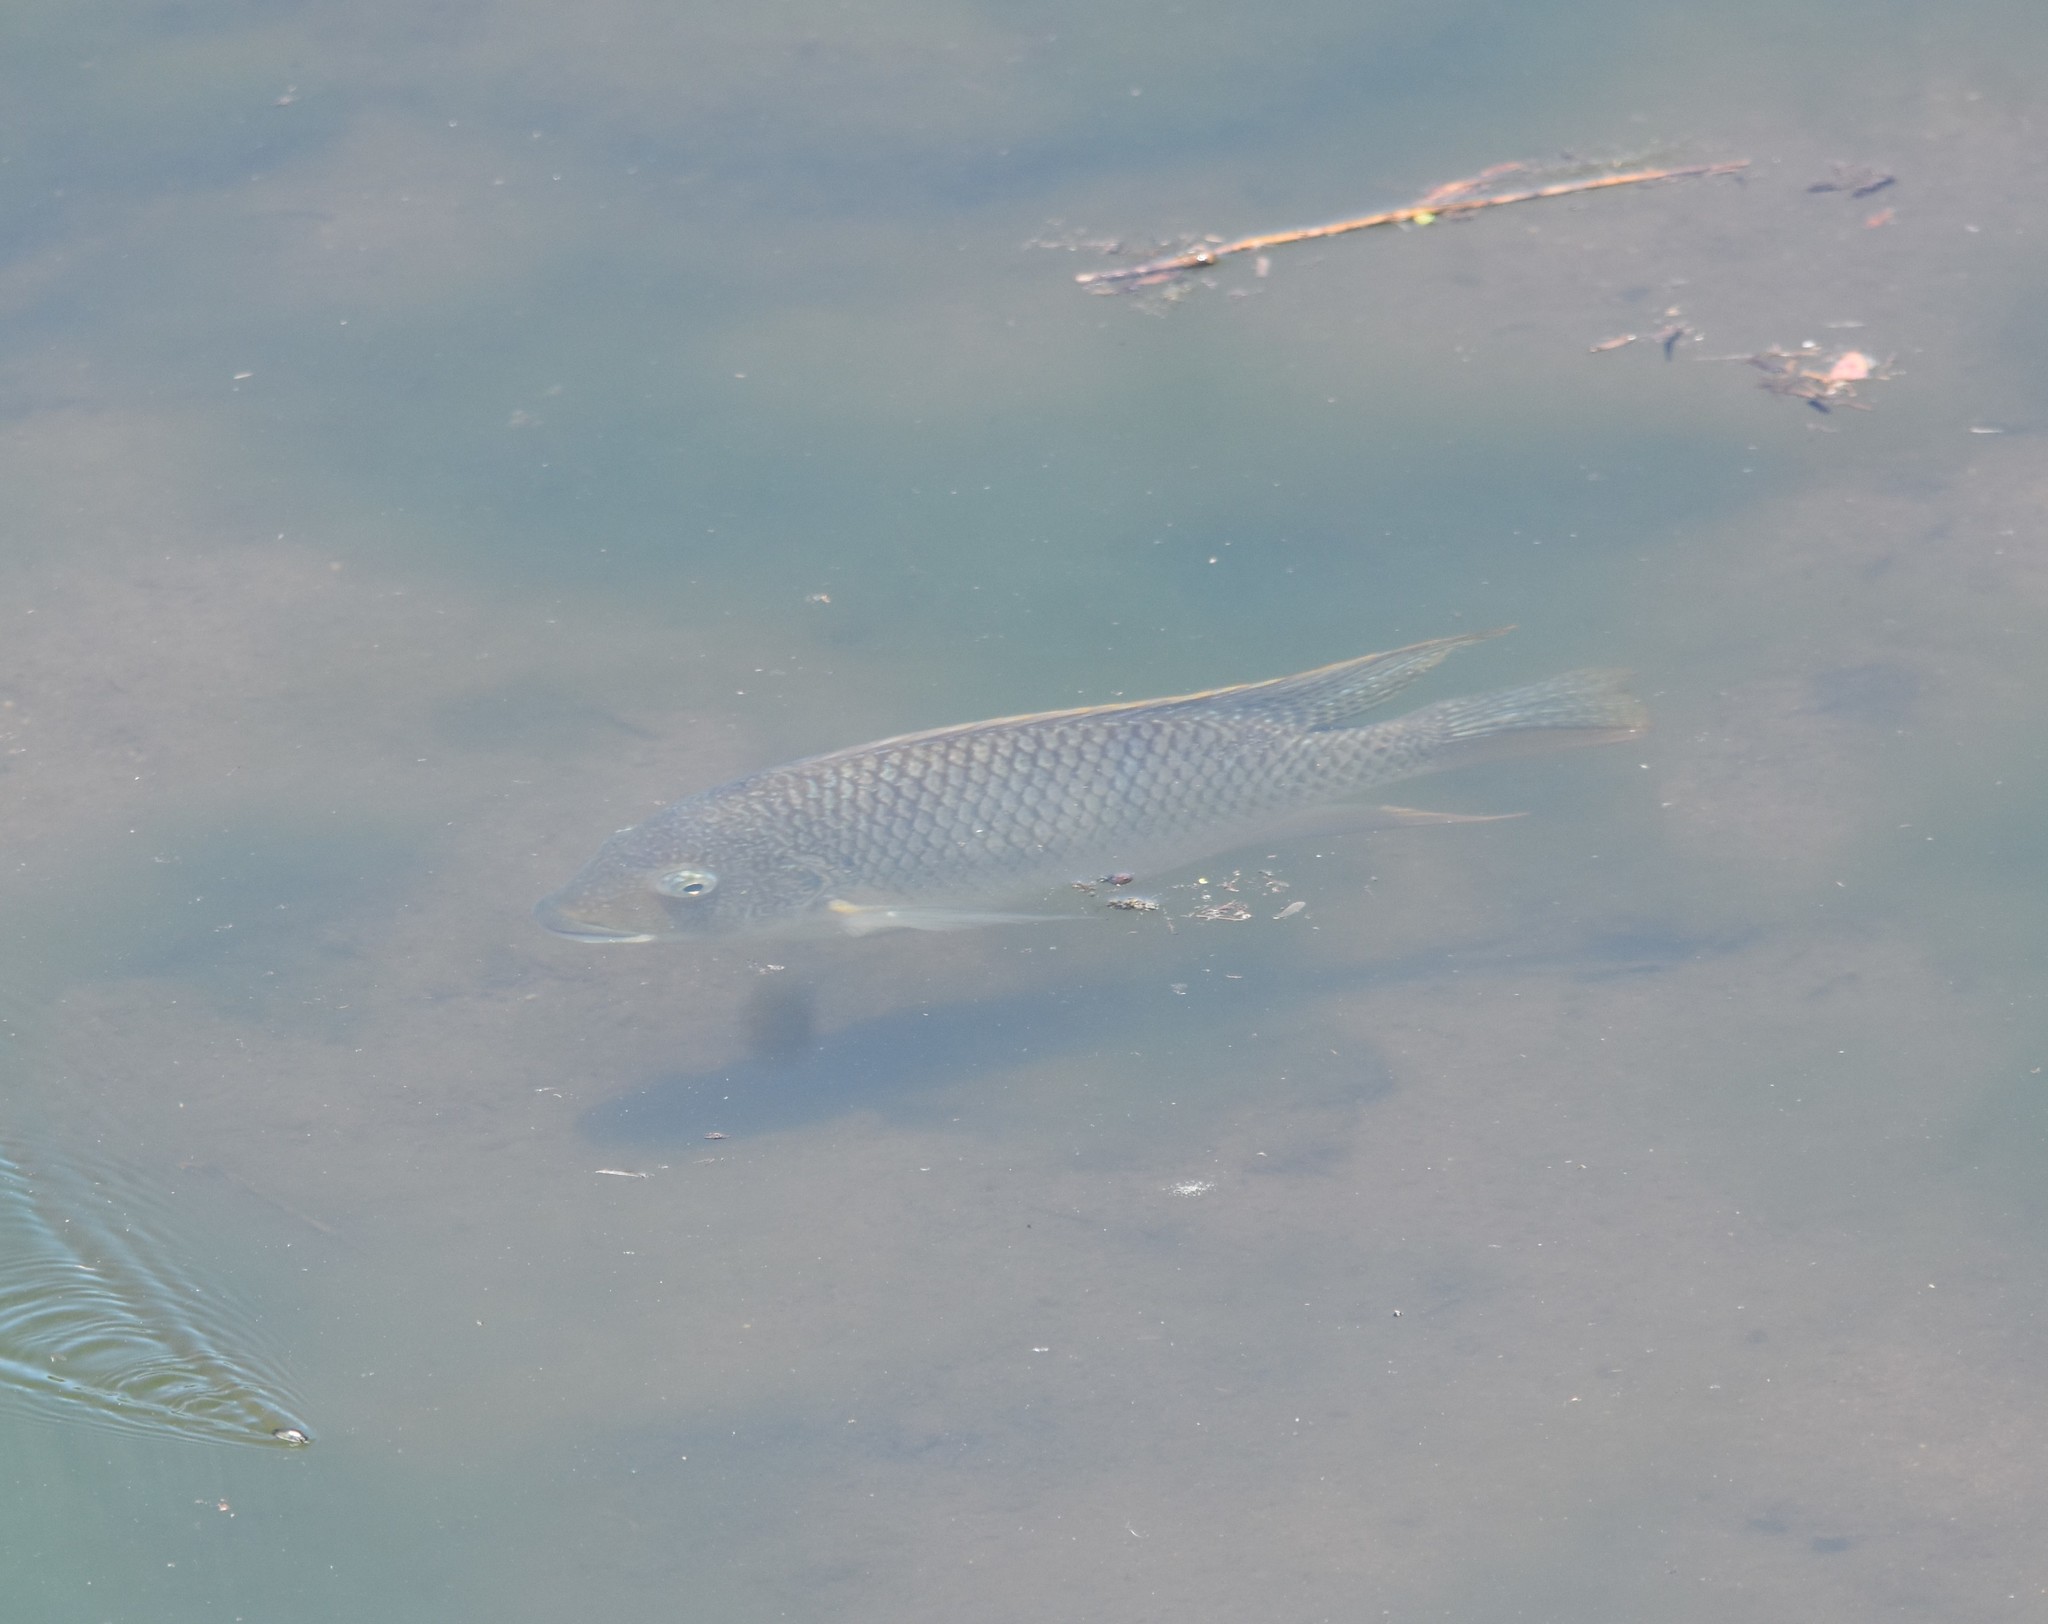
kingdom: Animalia
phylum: Chordata
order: Perciformes
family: Cichlidae
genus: Coptodon
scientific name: Coptodon rendalli
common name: Redbreast tilapia
